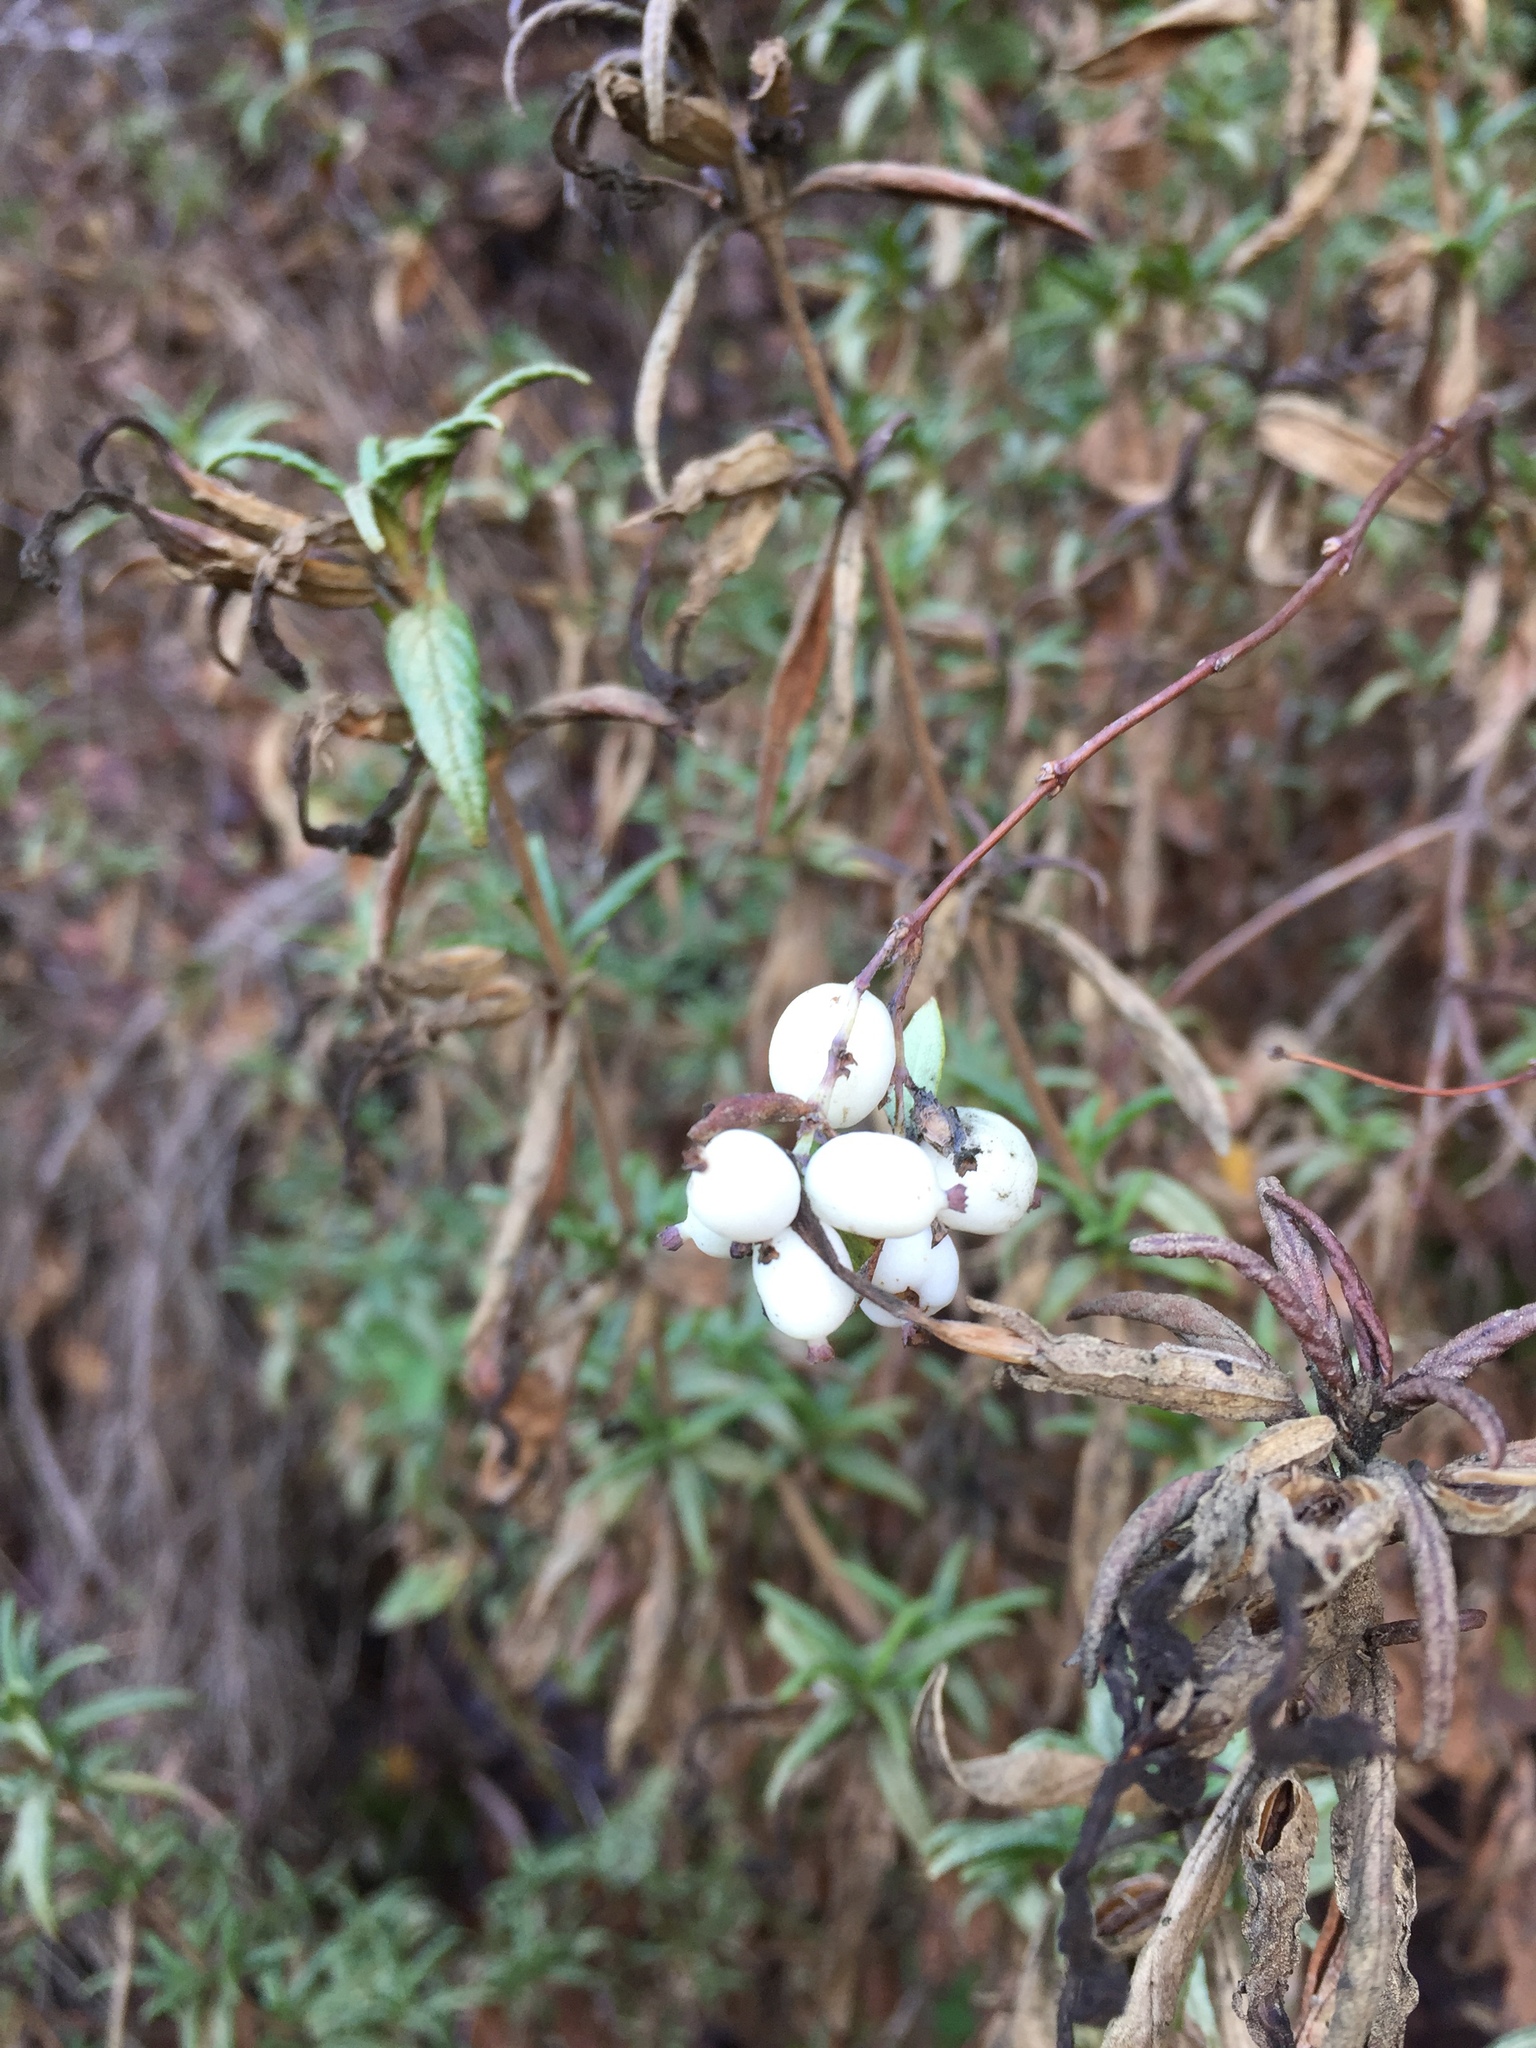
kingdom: Plantae
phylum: Tracheophyta
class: Magnoliopsida
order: Dipsacales
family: Caprifoliaceae
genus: Symphoricarpos
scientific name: Symphoricarpos albus
